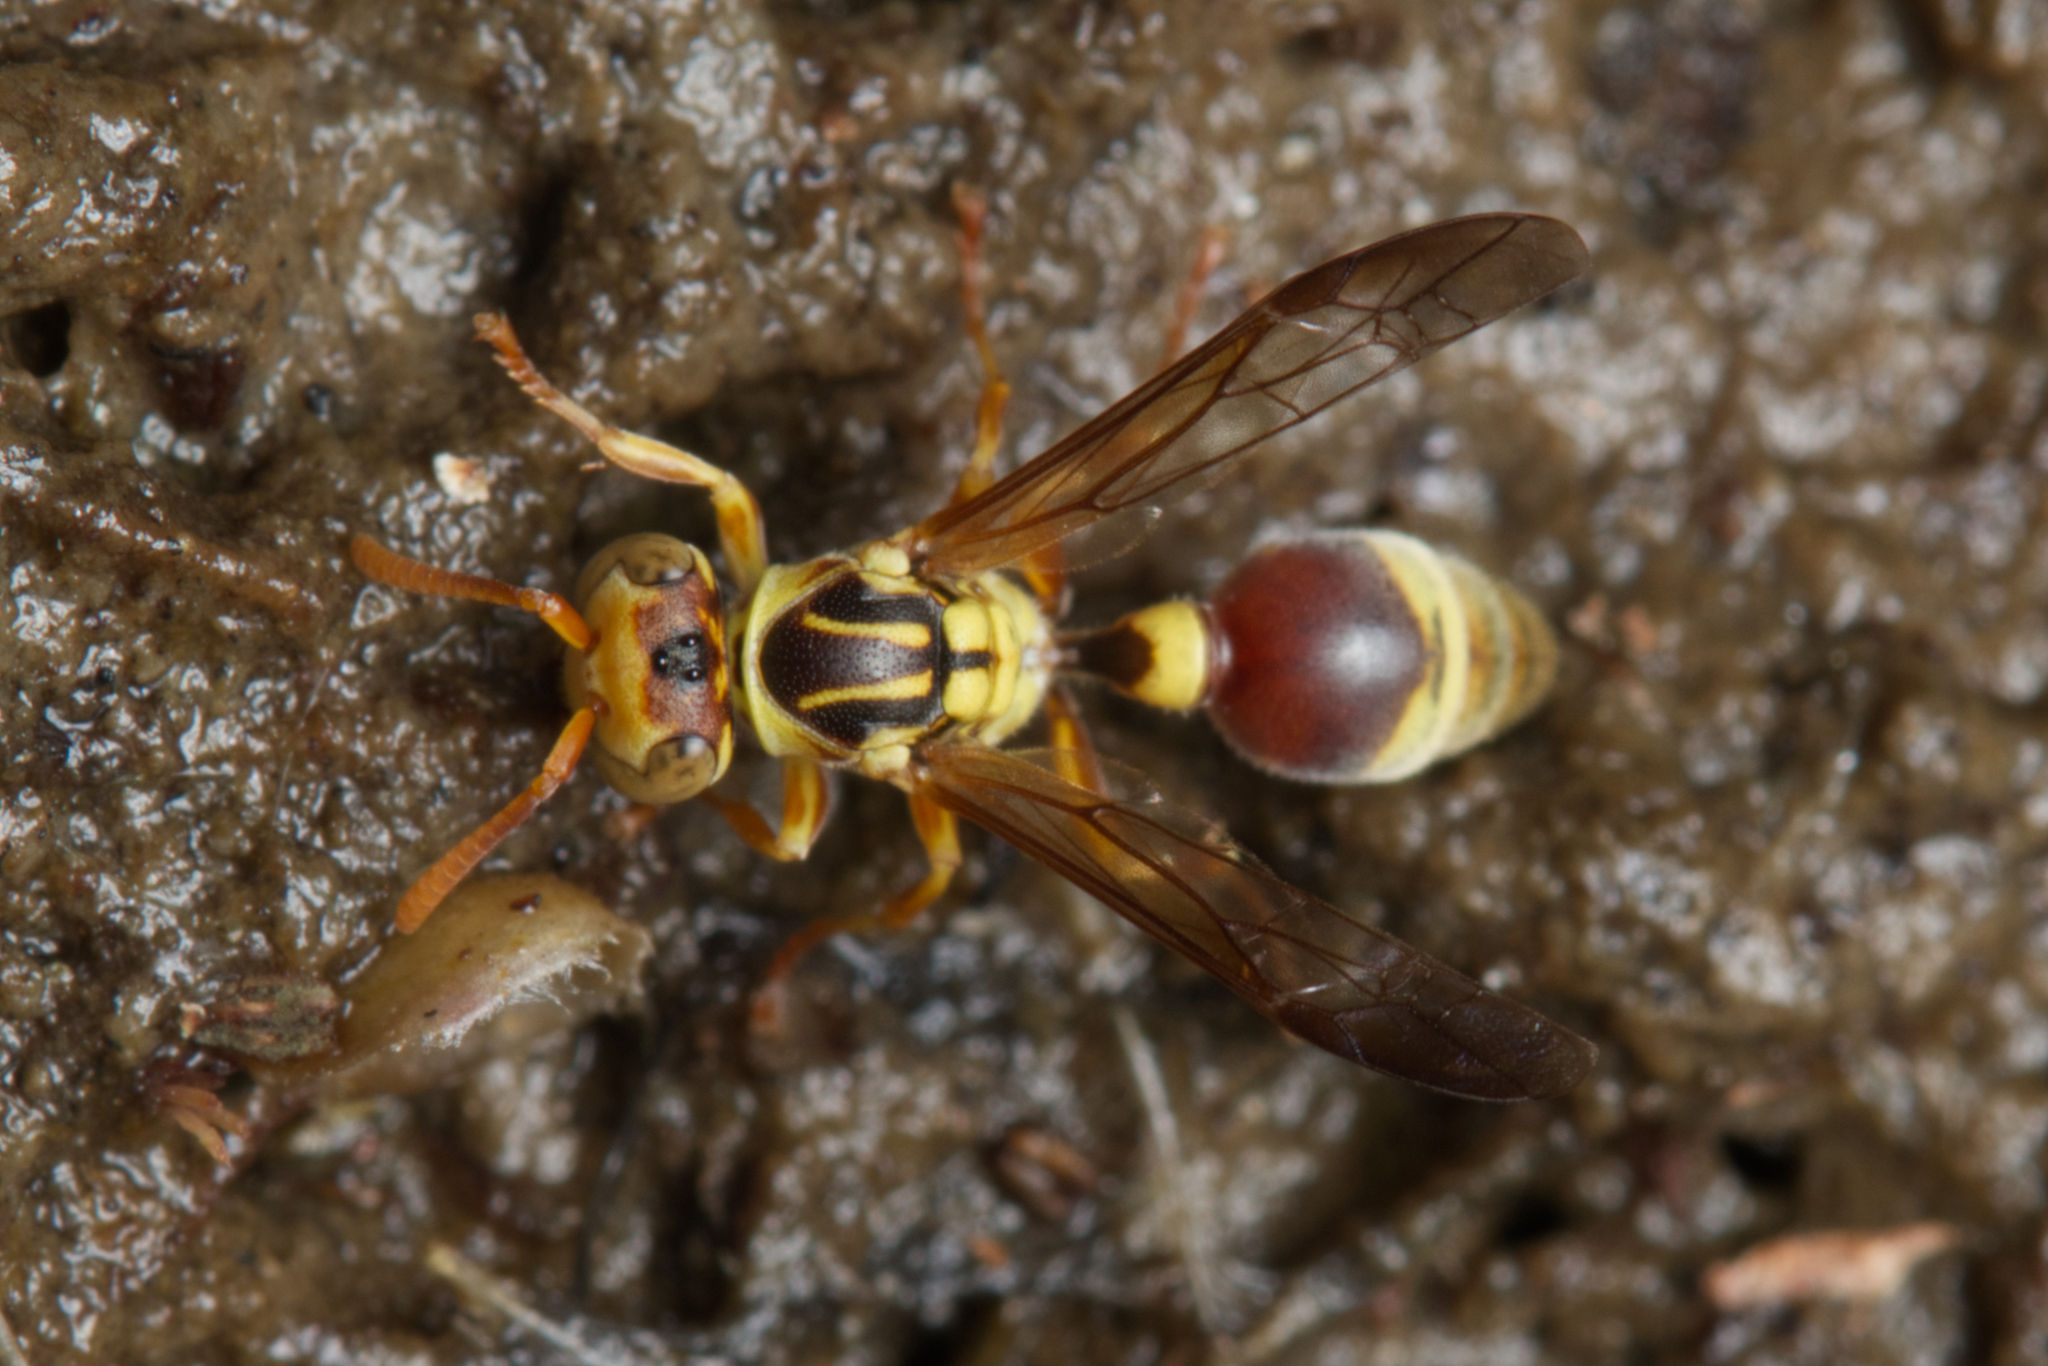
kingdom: Animalia
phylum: Arthropoda
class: Insecta
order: Hymenoptera
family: Vespidae
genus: Ropalidia
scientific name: Ropalidia romandi
